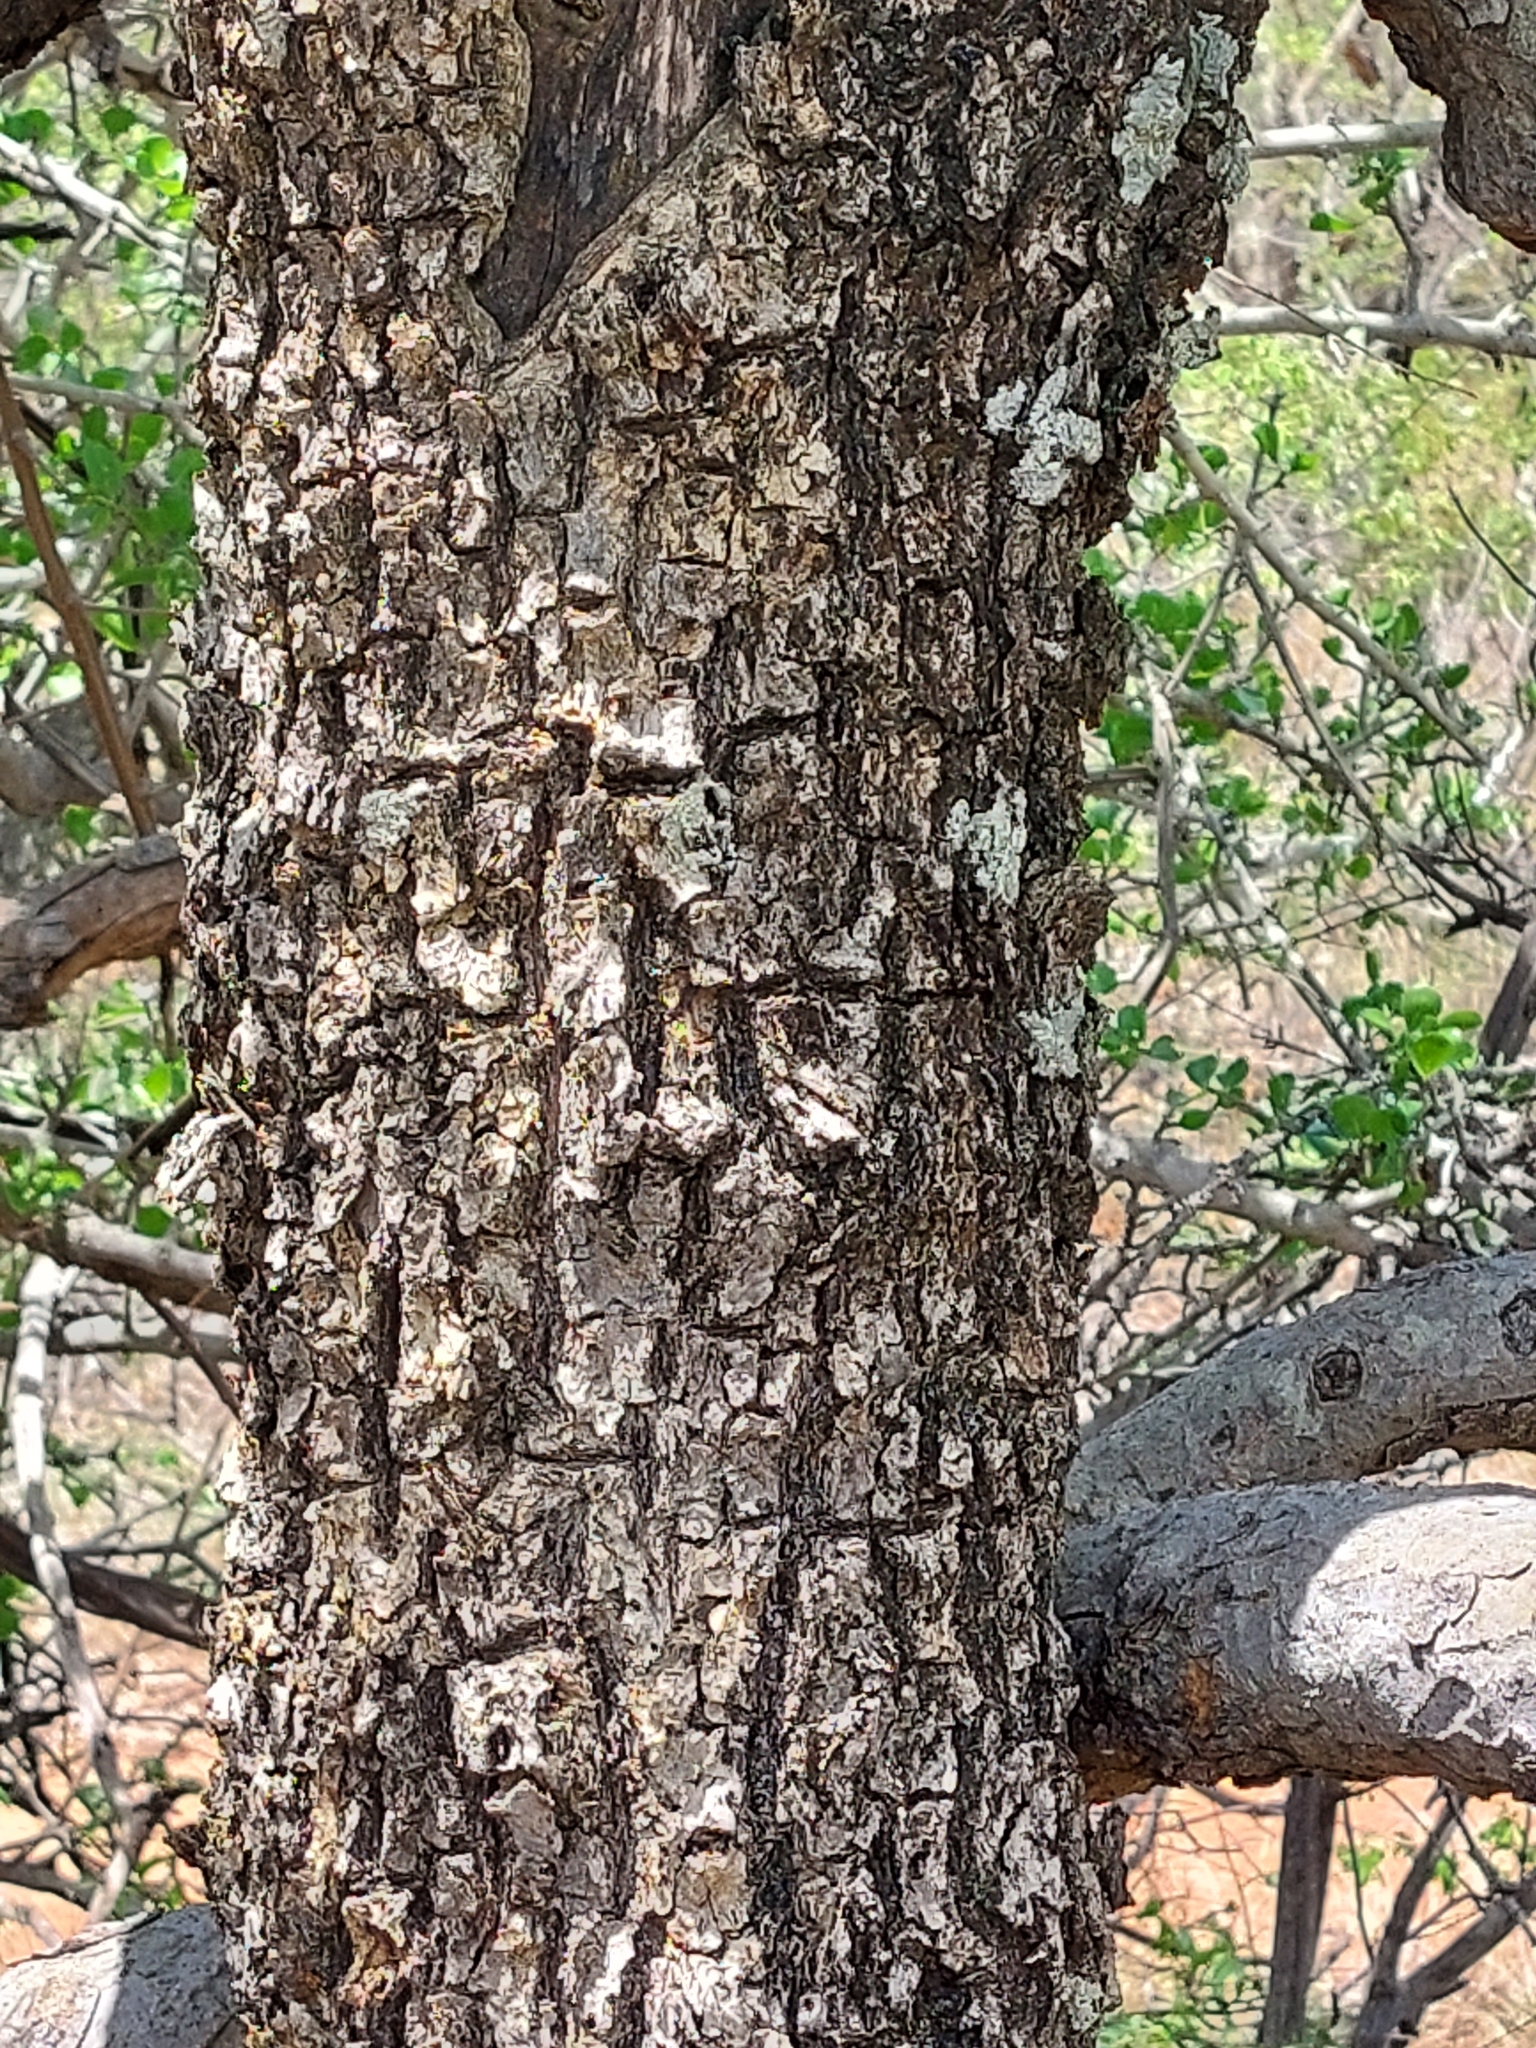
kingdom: Plantae
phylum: Tracheophyta
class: Magnoliopsida
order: Rosales
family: Rhamnaceae
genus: Phyllogeiton
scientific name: Phyllogeiton zeyheri
